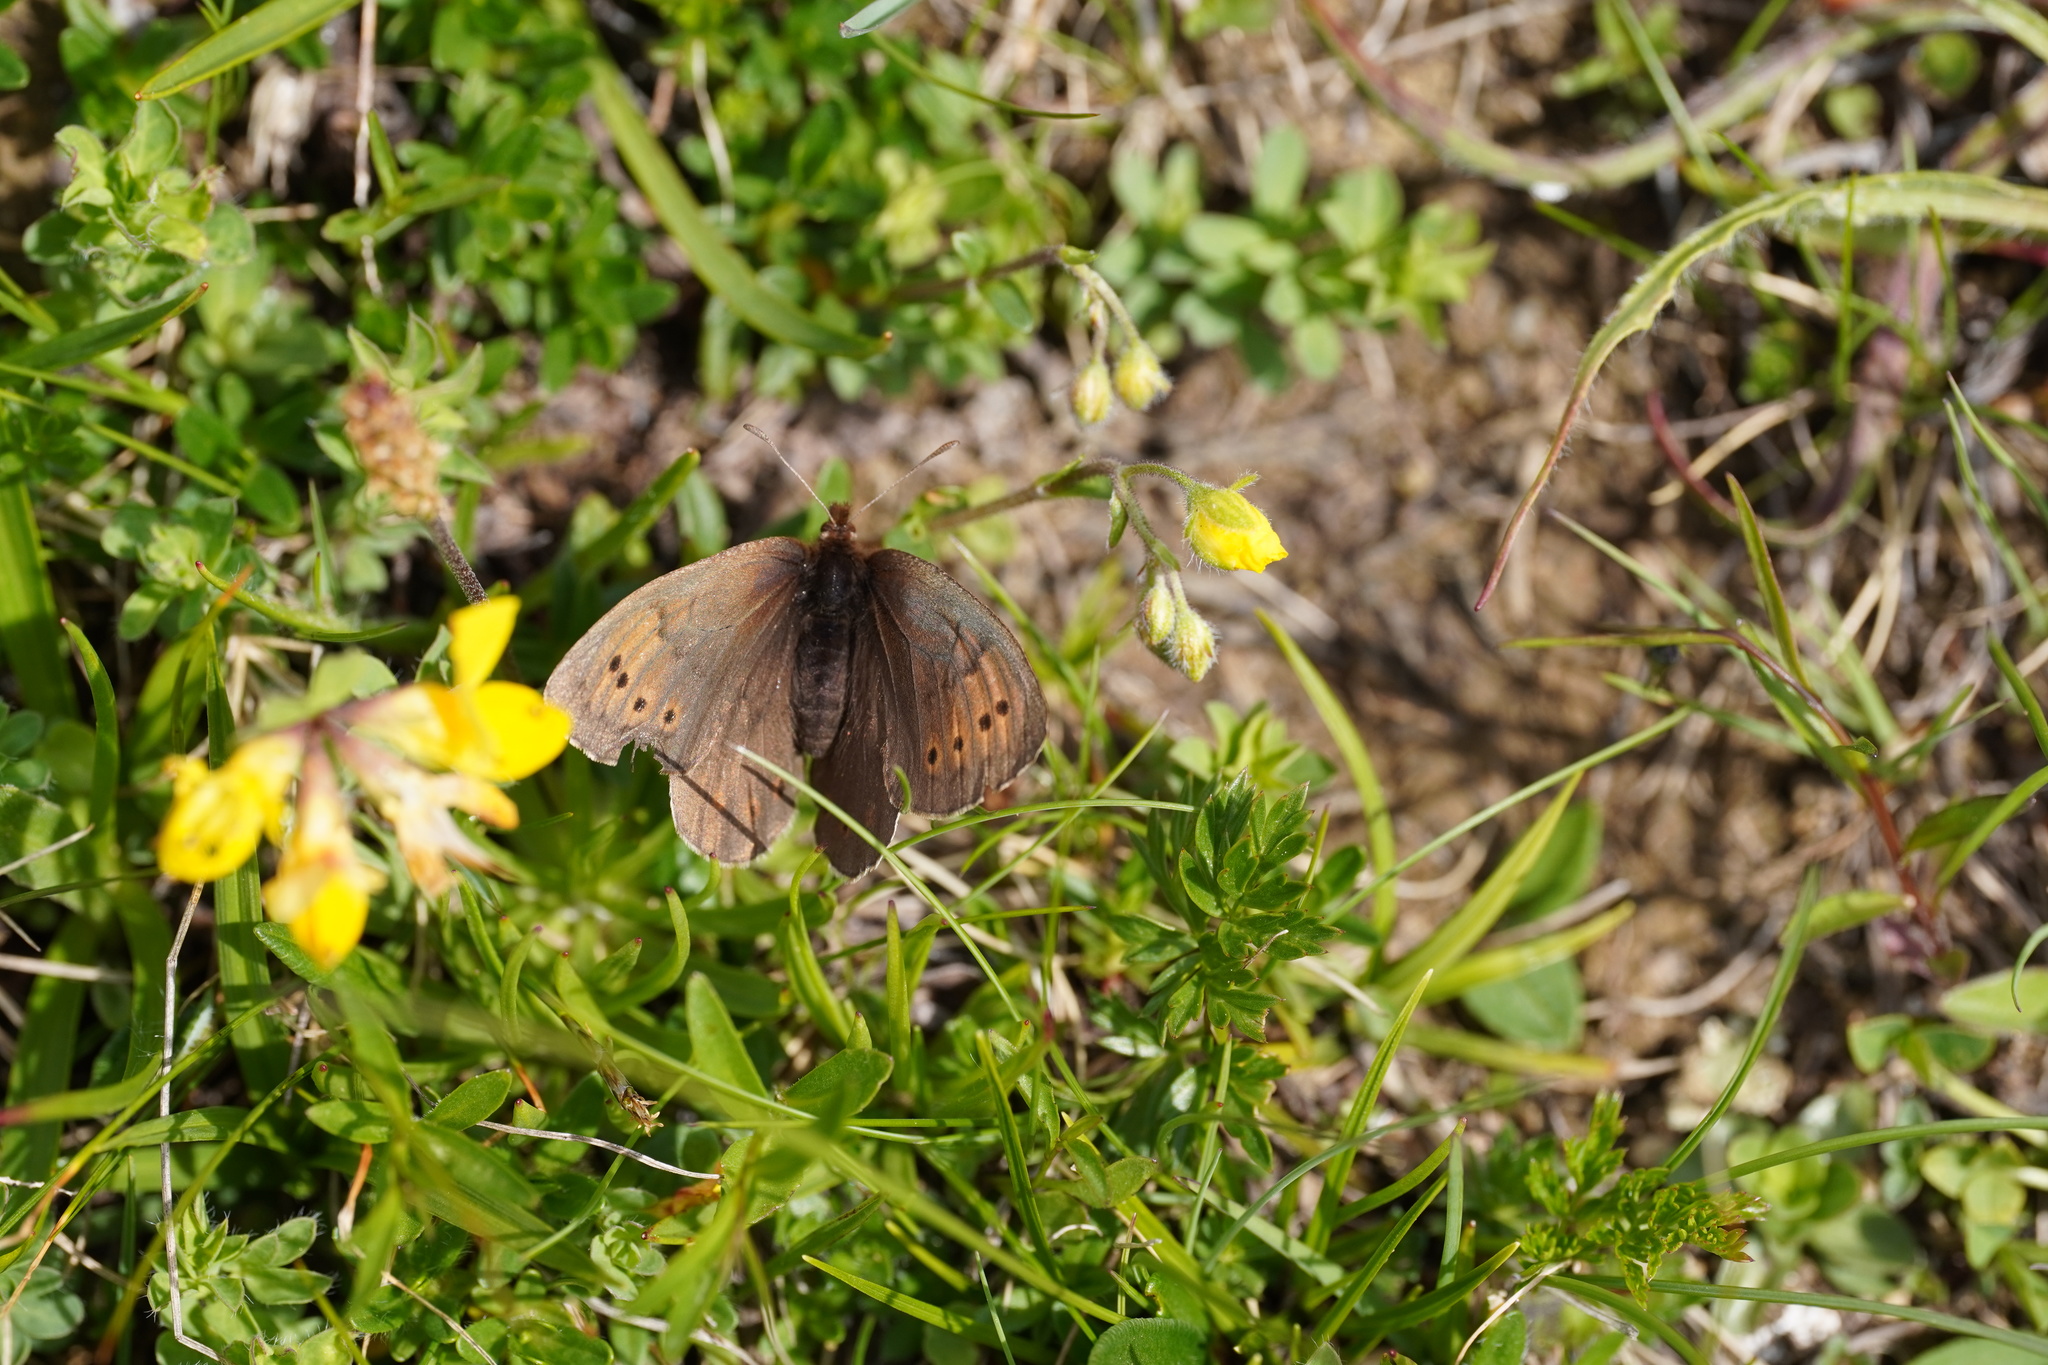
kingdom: Animalia
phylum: Arthropoda
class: Insecta
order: Lepidoptera
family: Nymphalidae
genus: Erebia
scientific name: Erebia pandrose
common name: Dewy ringlet
